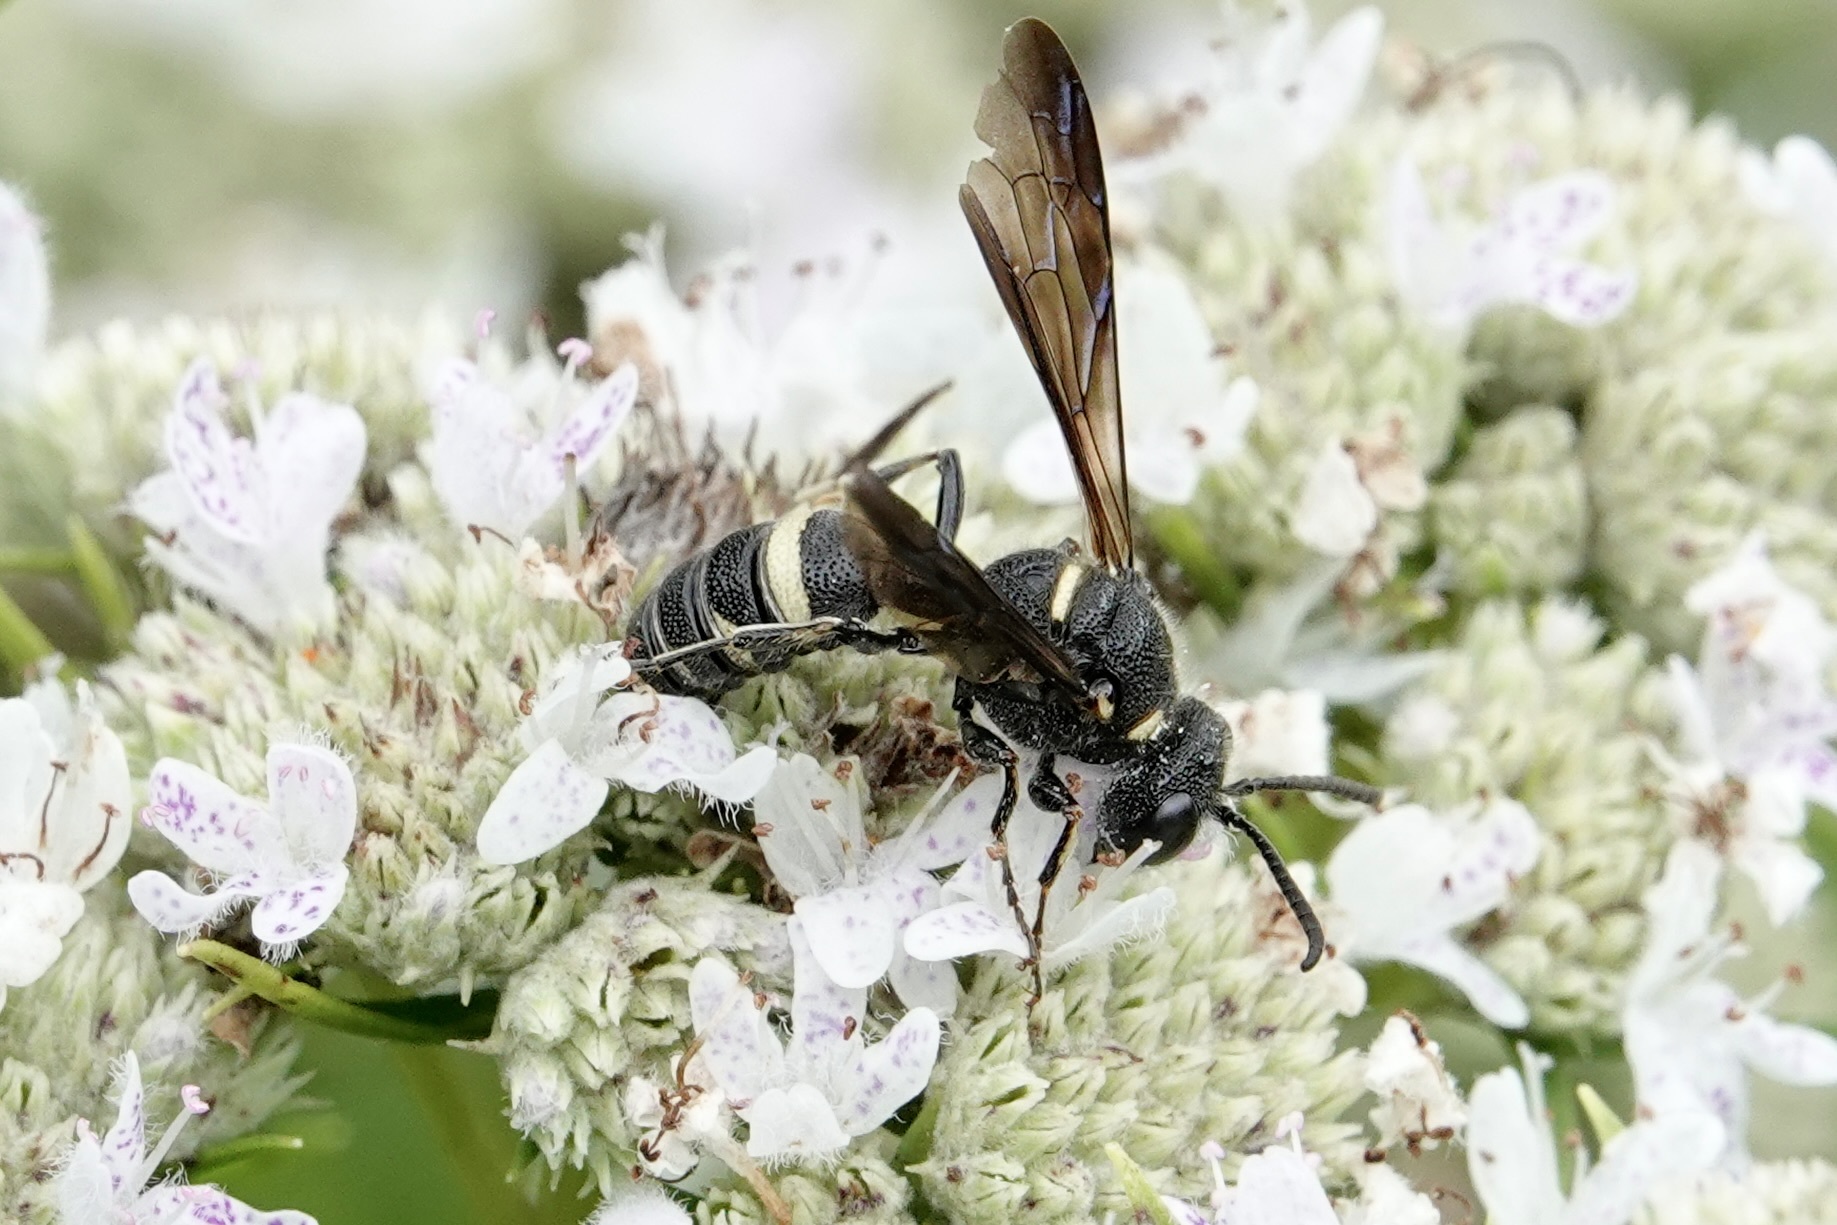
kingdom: Animalia
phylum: Arthropoda
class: Insecta
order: Hymenoptera
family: Crabronidae
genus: Cerceris
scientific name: Cerceris fumipennis
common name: Smokey-winged beetle bandit wasp
